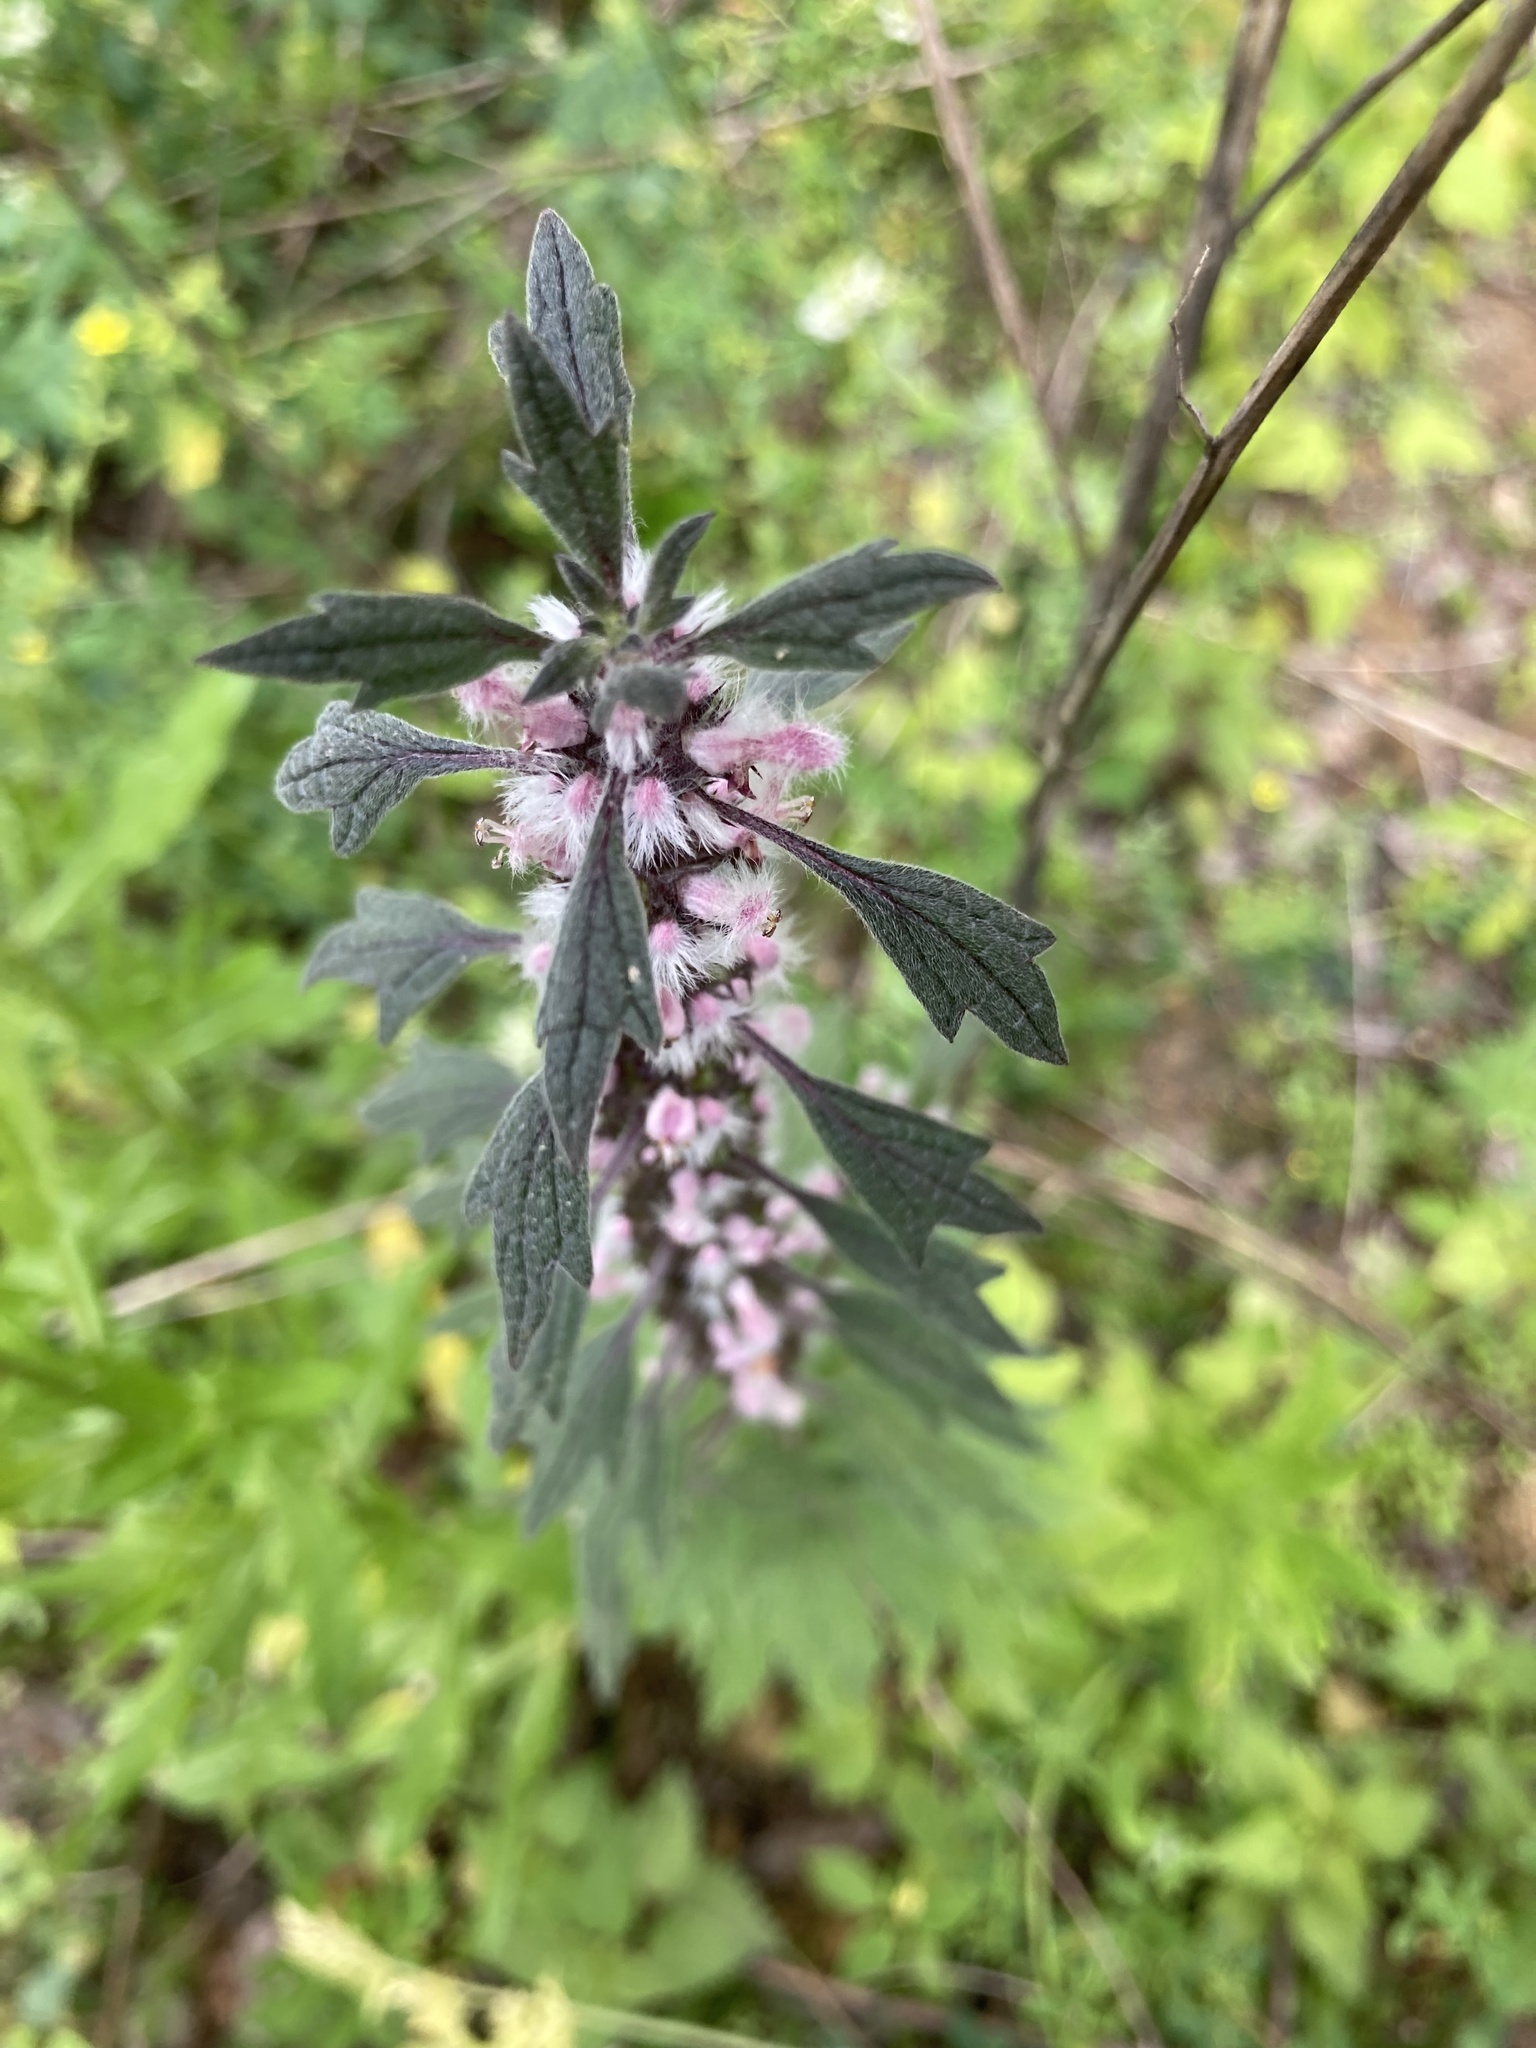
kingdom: Plantae
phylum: Tracheophyta
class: Magnoliopsida
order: Lamiales
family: Lamiaceae
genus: Leonurus
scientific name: Leonurus quinquelobatus
